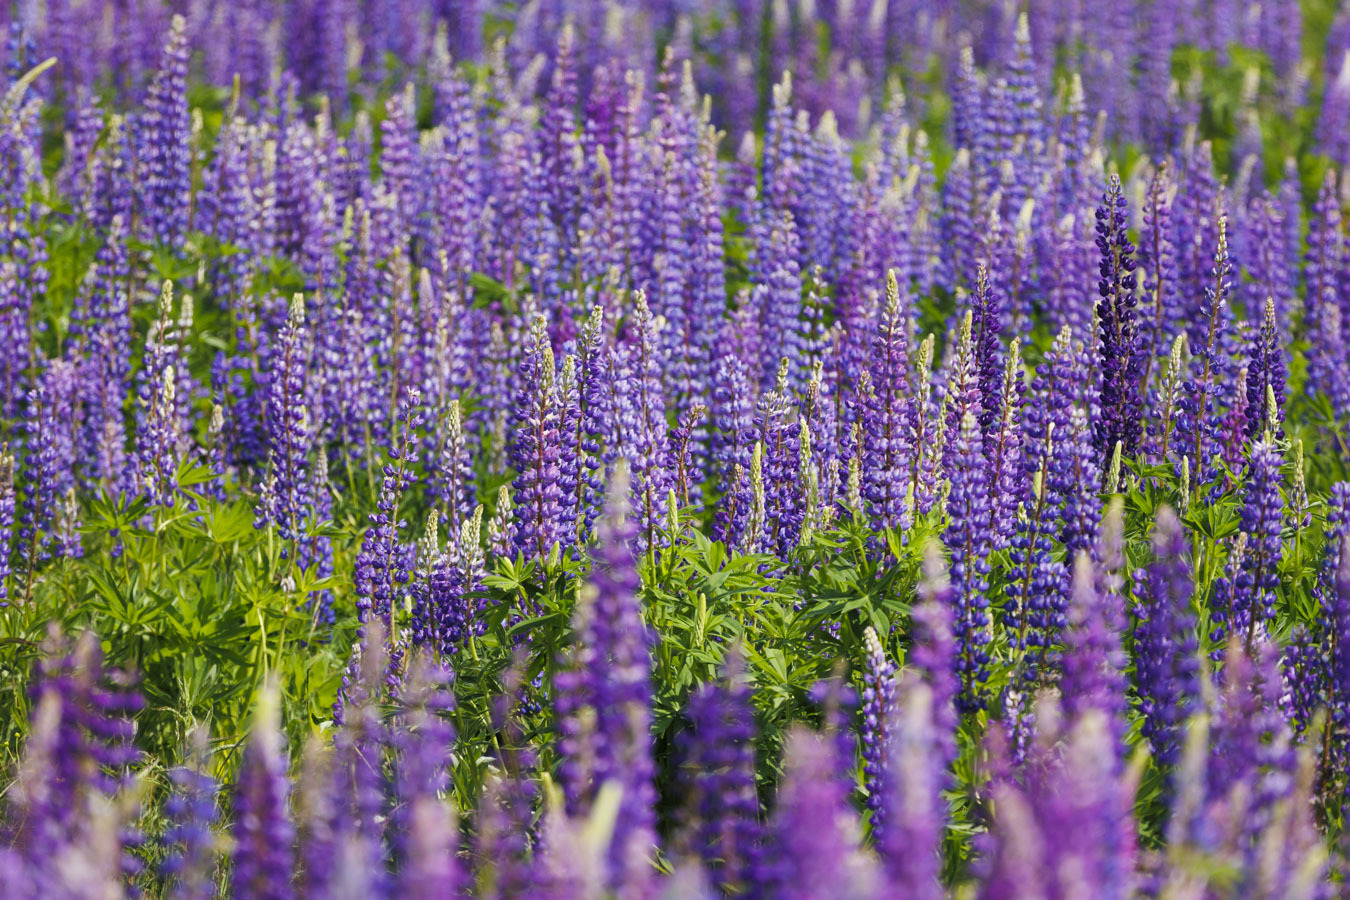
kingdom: Plantae
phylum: Tracheophyta
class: Magnoliopsida
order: Fabales
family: Fabaceae
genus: Lupinus
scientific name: Lupinus polyphyllus
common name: Garden lupin
